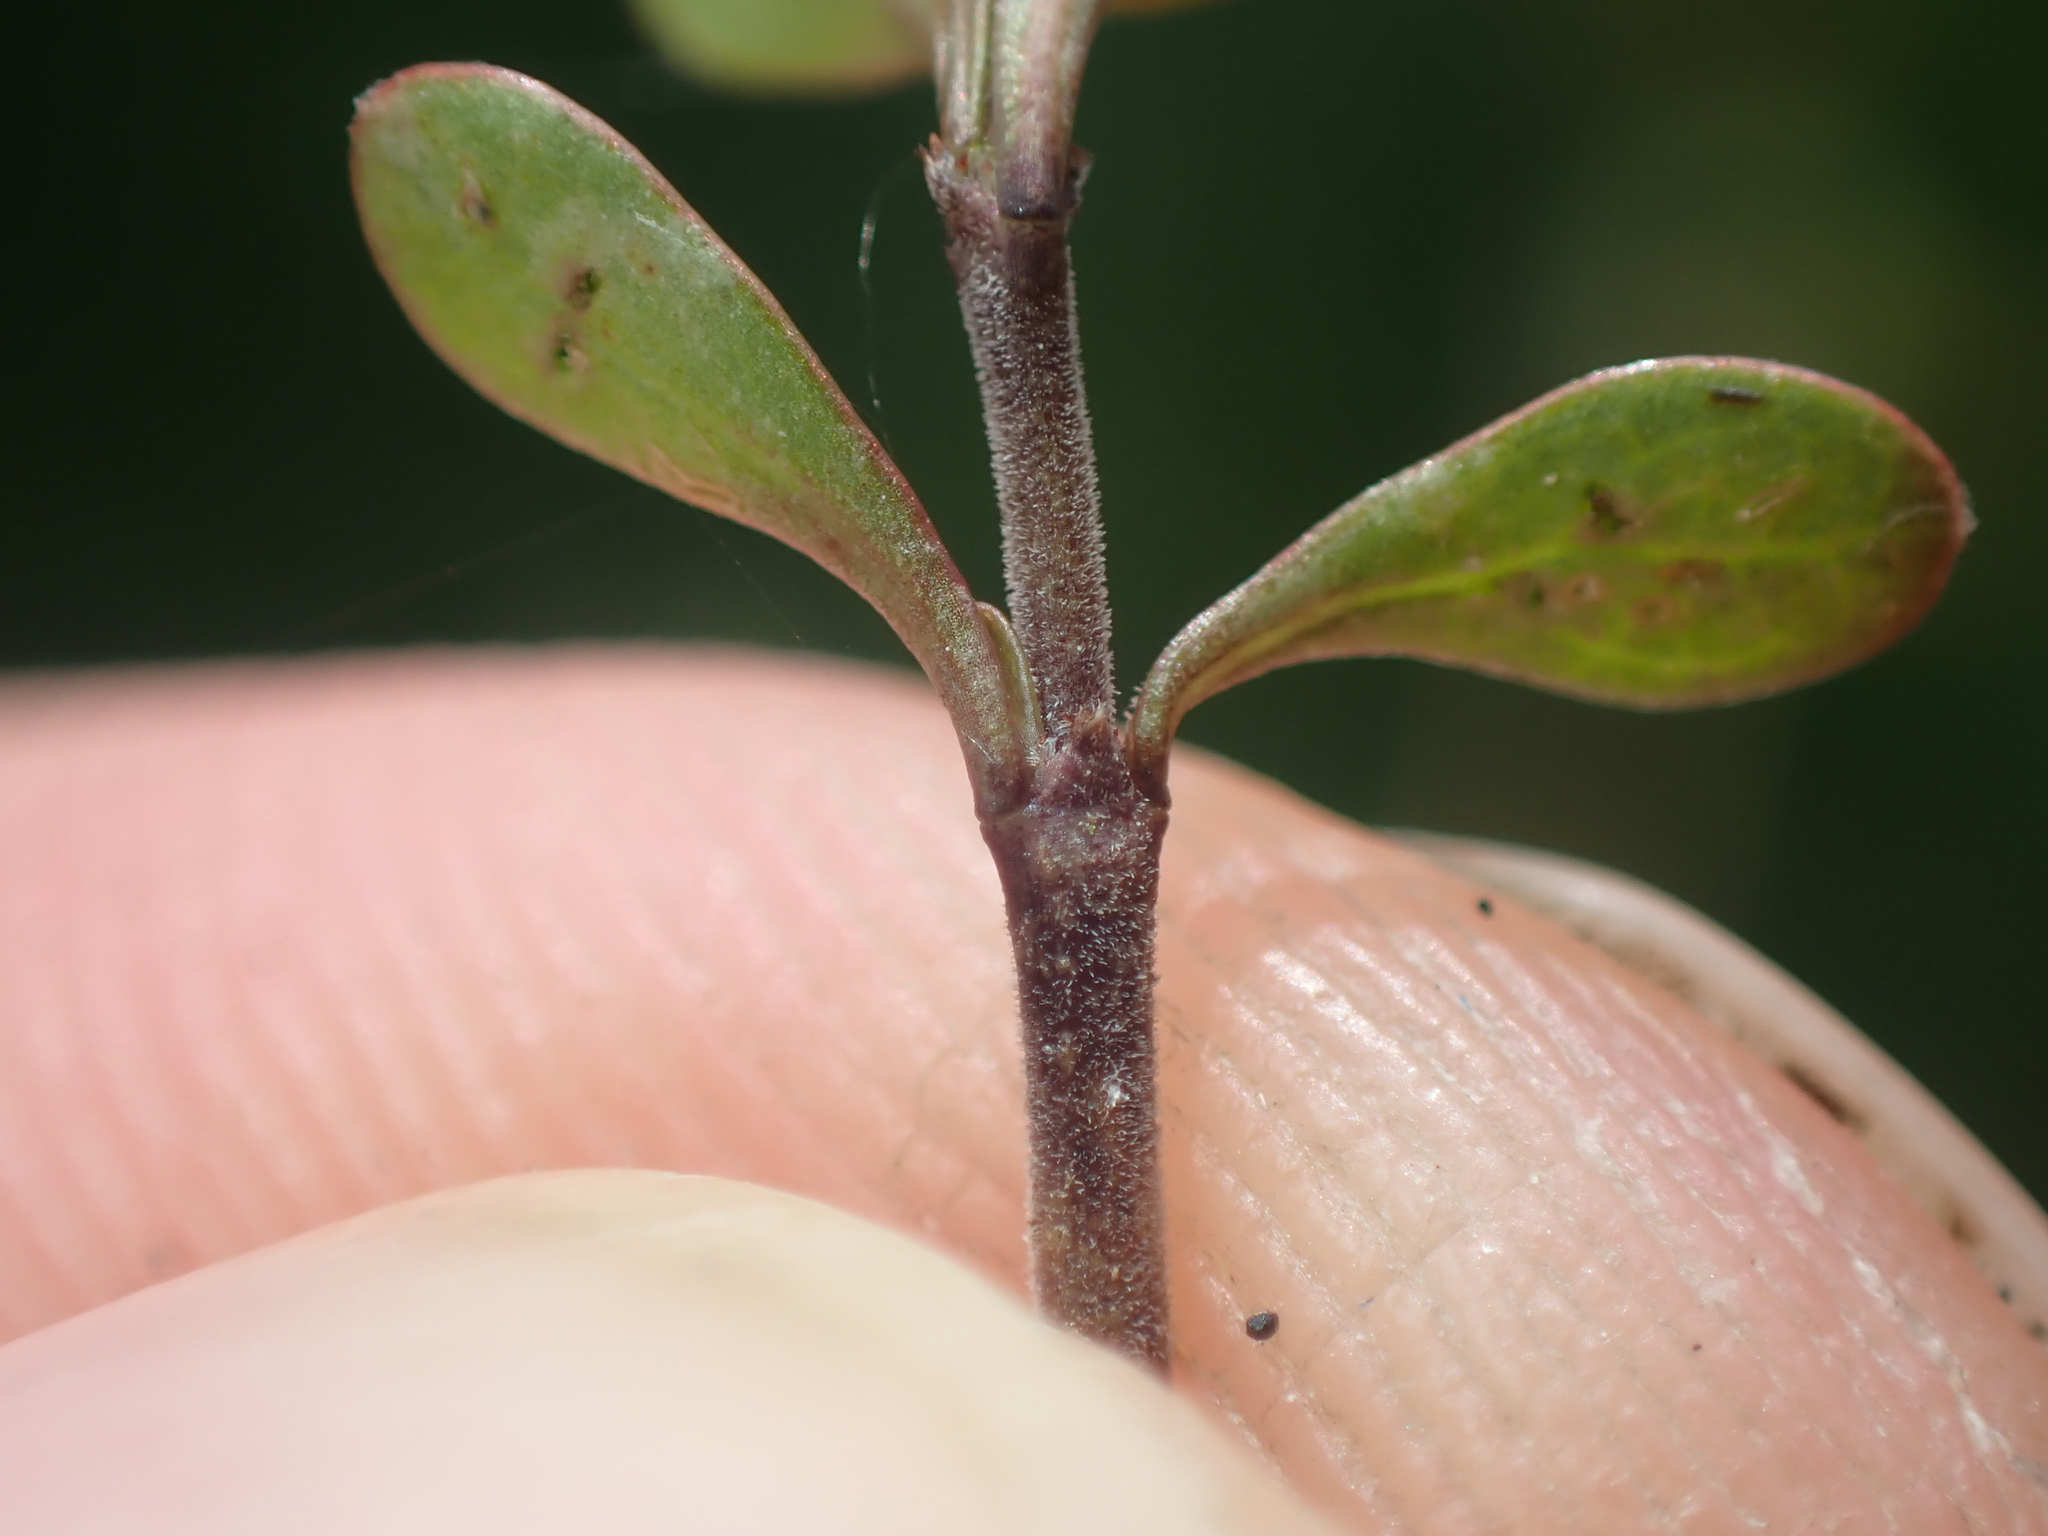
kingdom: Plantae
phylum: Tracheophyta
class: Magnoliopsida
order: Gentianales
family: Rubiaceae
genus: Coprosma
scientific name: Coprosma rigida
